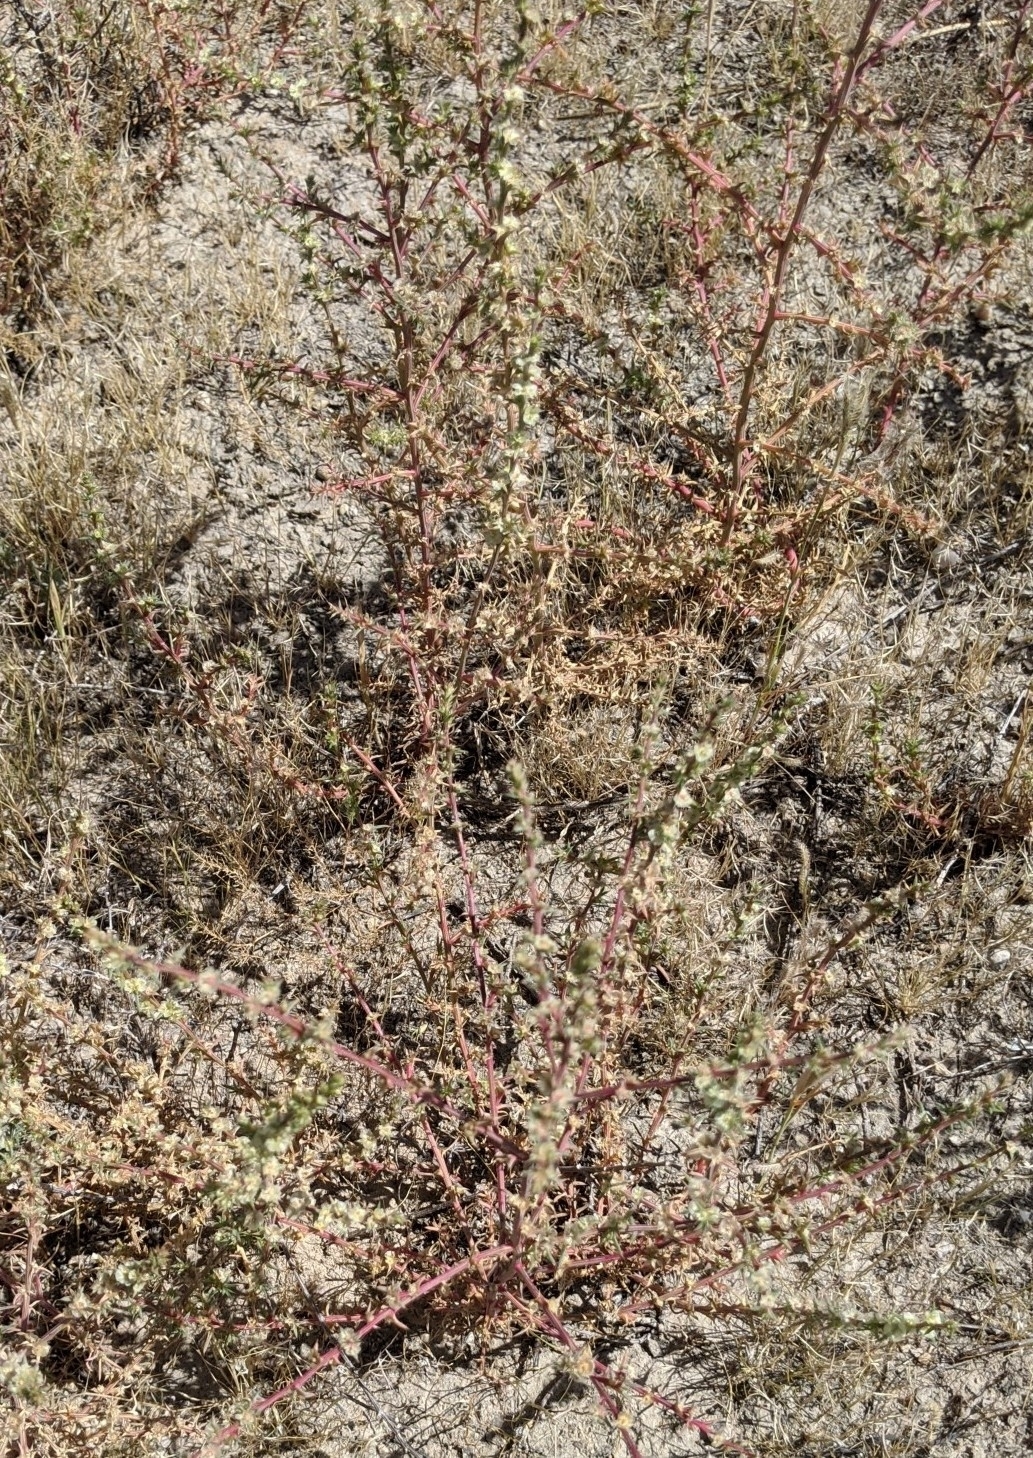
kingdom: Plantae
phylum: Tracheophyta
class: Magnoliopsida
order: Caryophyllales
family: Amaranthaceae
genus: Salsola
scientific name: Salsola tragus
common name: Prickly russian thistle
